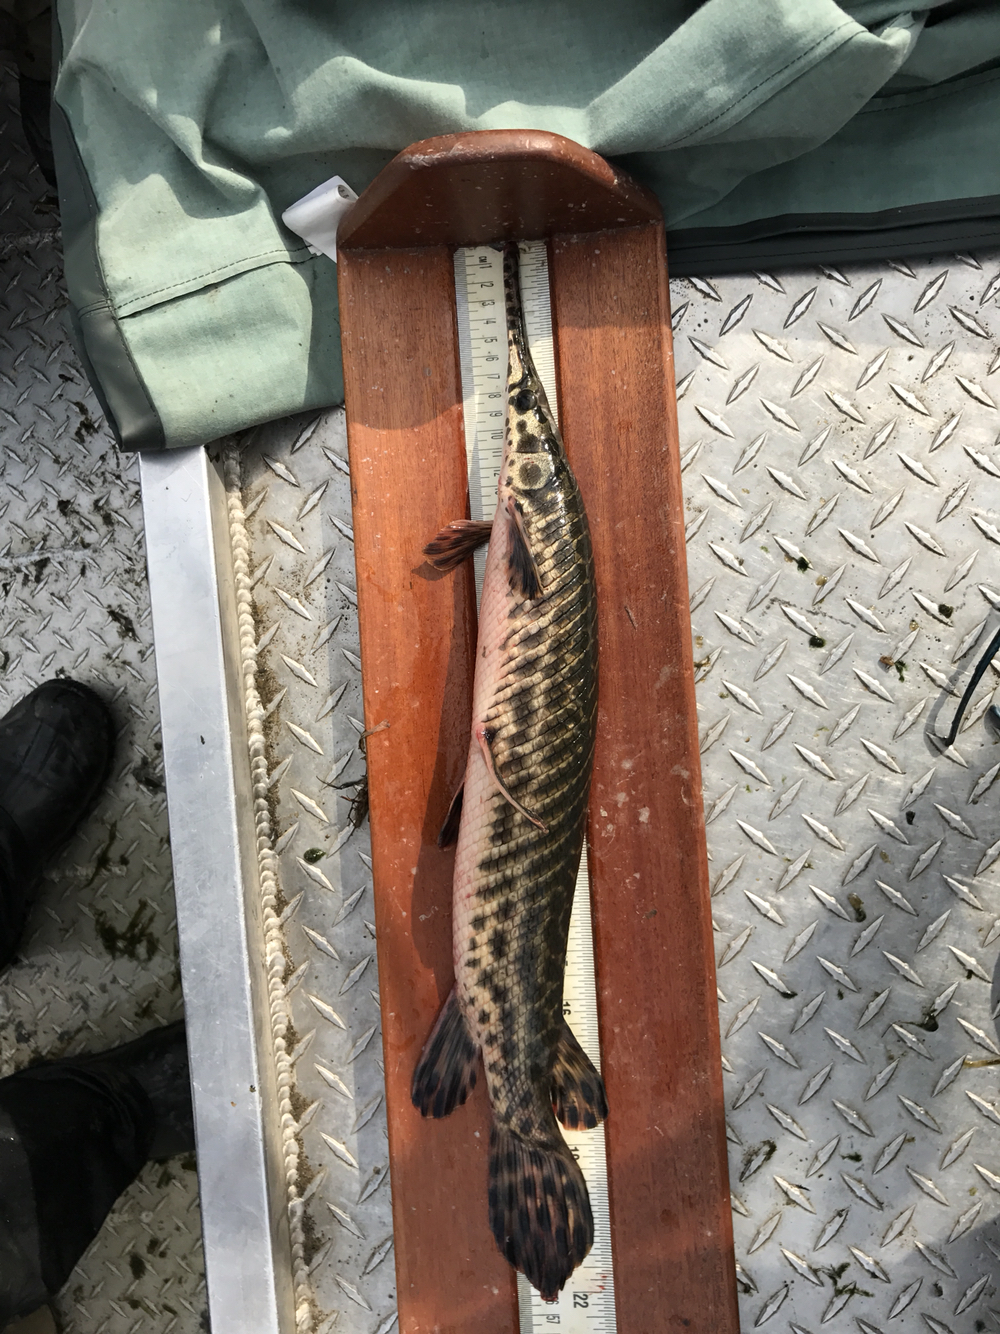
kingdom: Animalia
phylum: Chordata
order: Lepisosteiformes
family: Lepisosteidae
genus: Lepisosteus
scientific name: Lepisosteus oculatus
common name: Spotted gar
